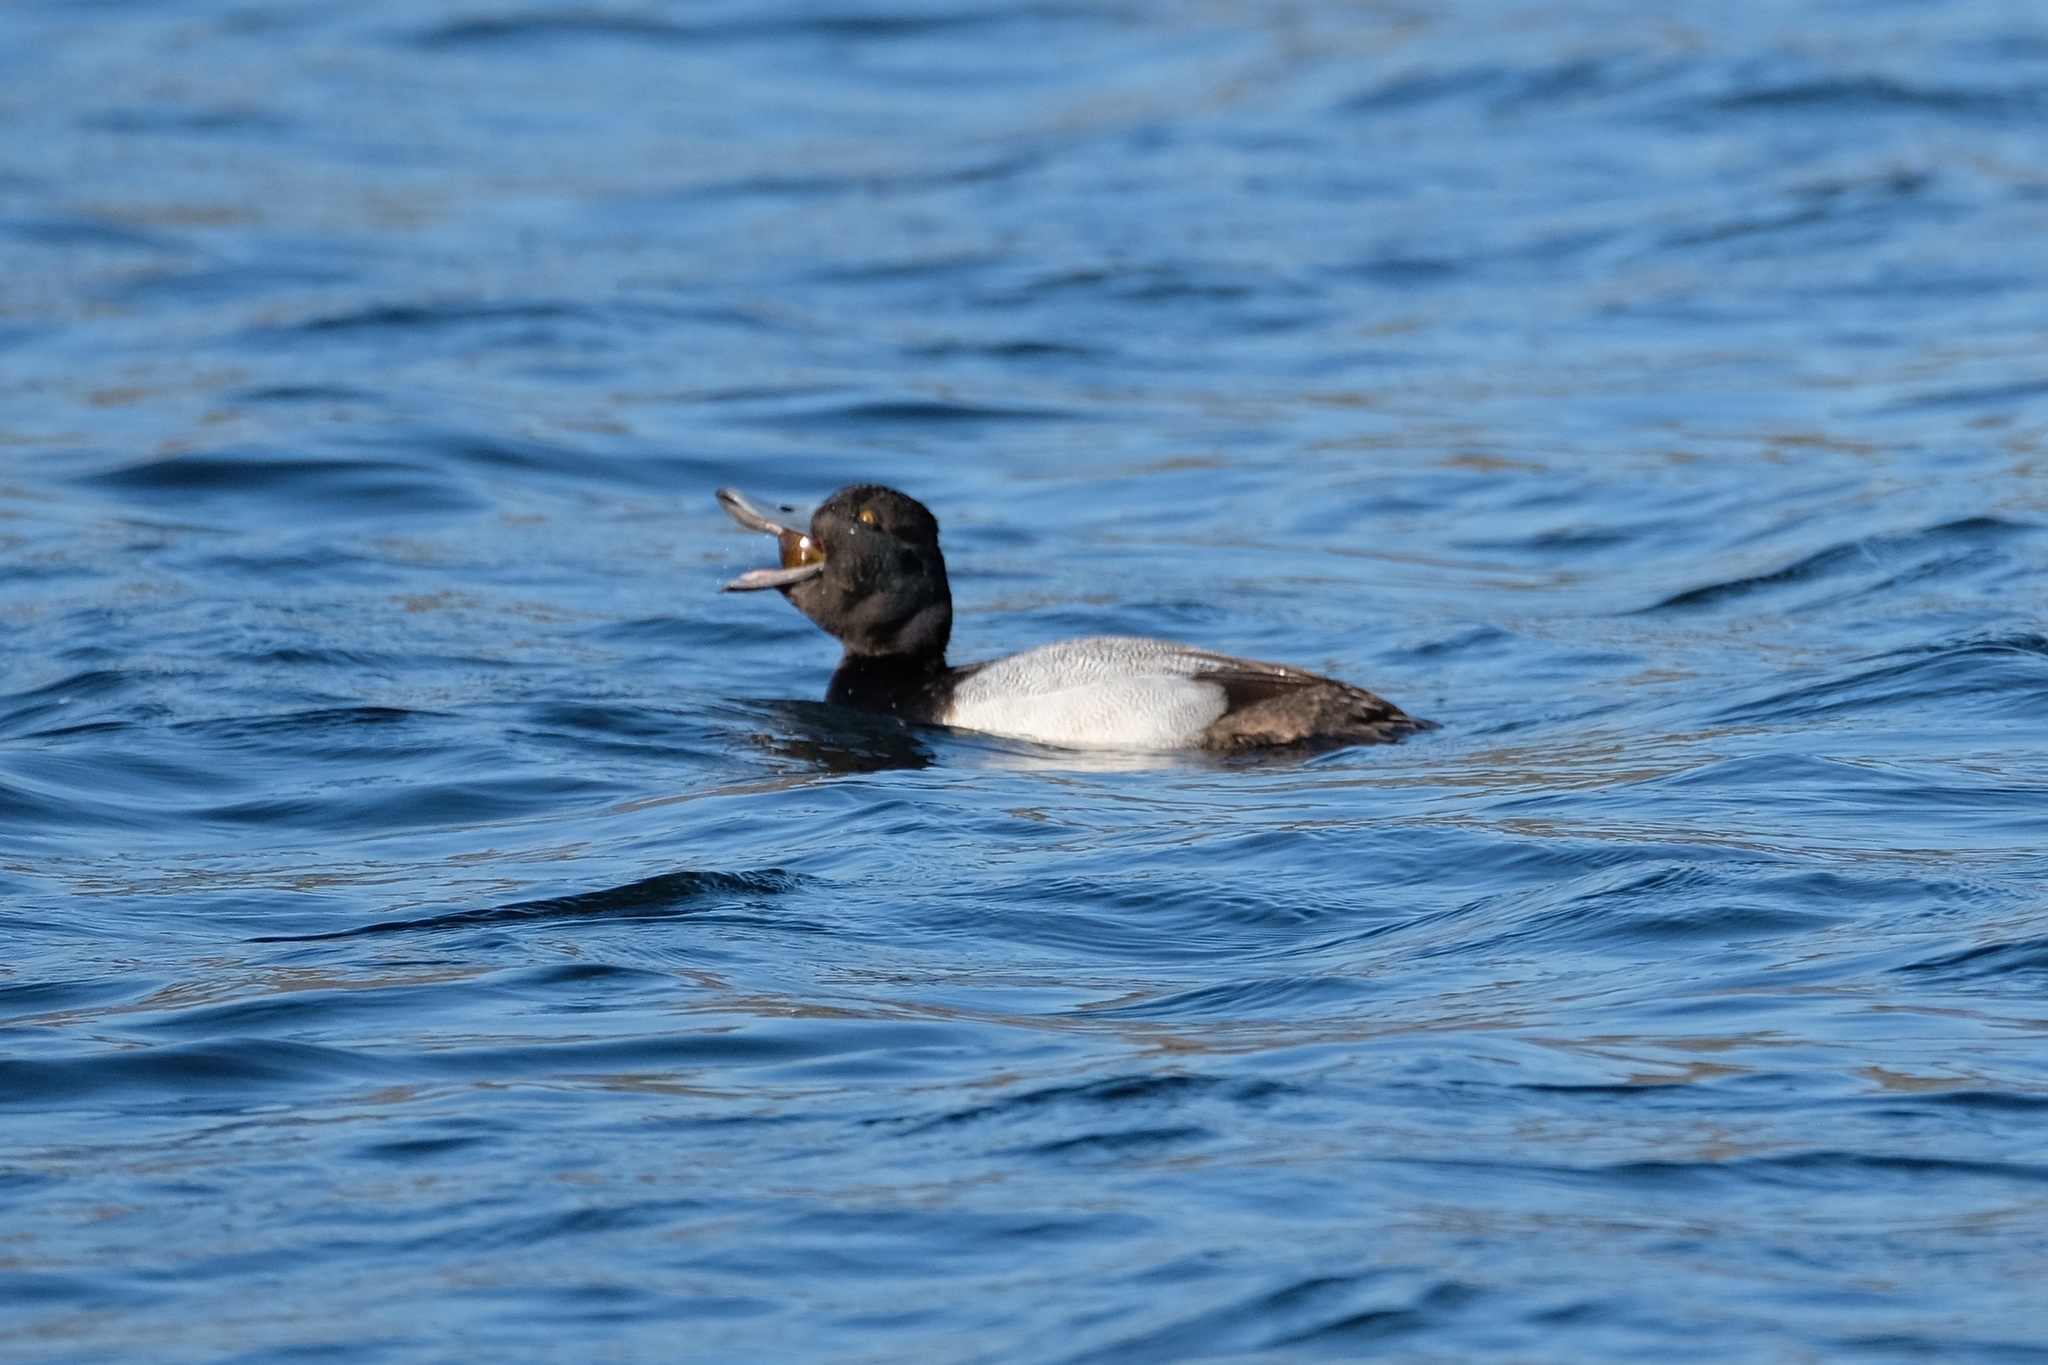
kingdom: Animalia
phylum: Chordata
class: Aves
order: Anseriformes
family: Anatidae
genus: Aythya
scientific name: Aythya affinis
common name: Lesser scaup
